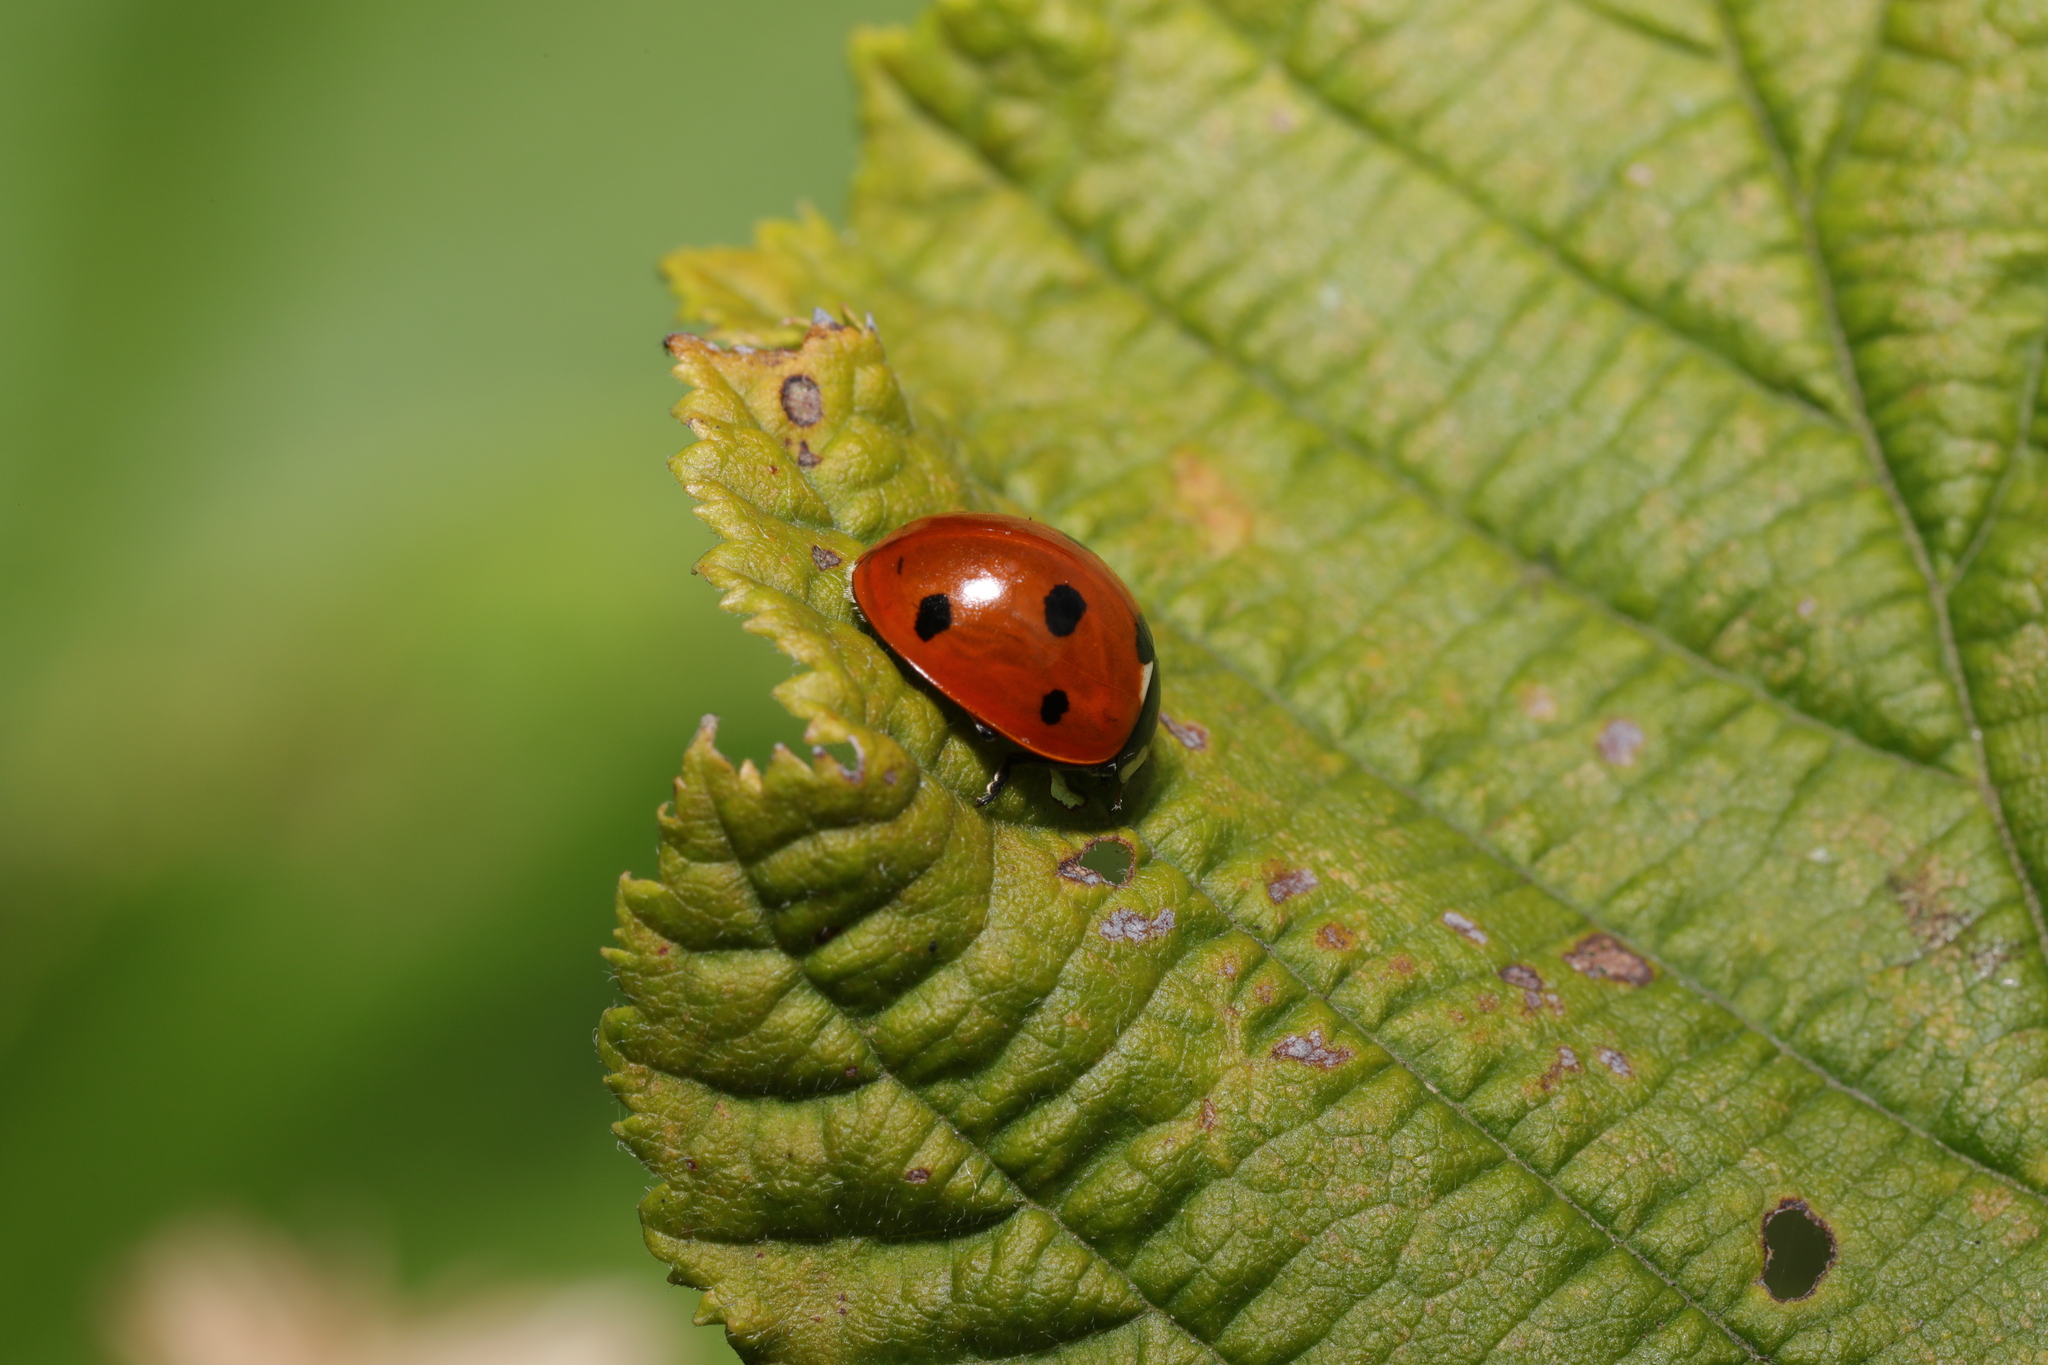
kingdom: Animalia
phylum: Arthropoda
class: Insecta
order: Coleoptera
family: Coccinellidae
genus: Coccinella
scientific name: Coccinella septempunctata
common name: Sevenspotted lady beetle
